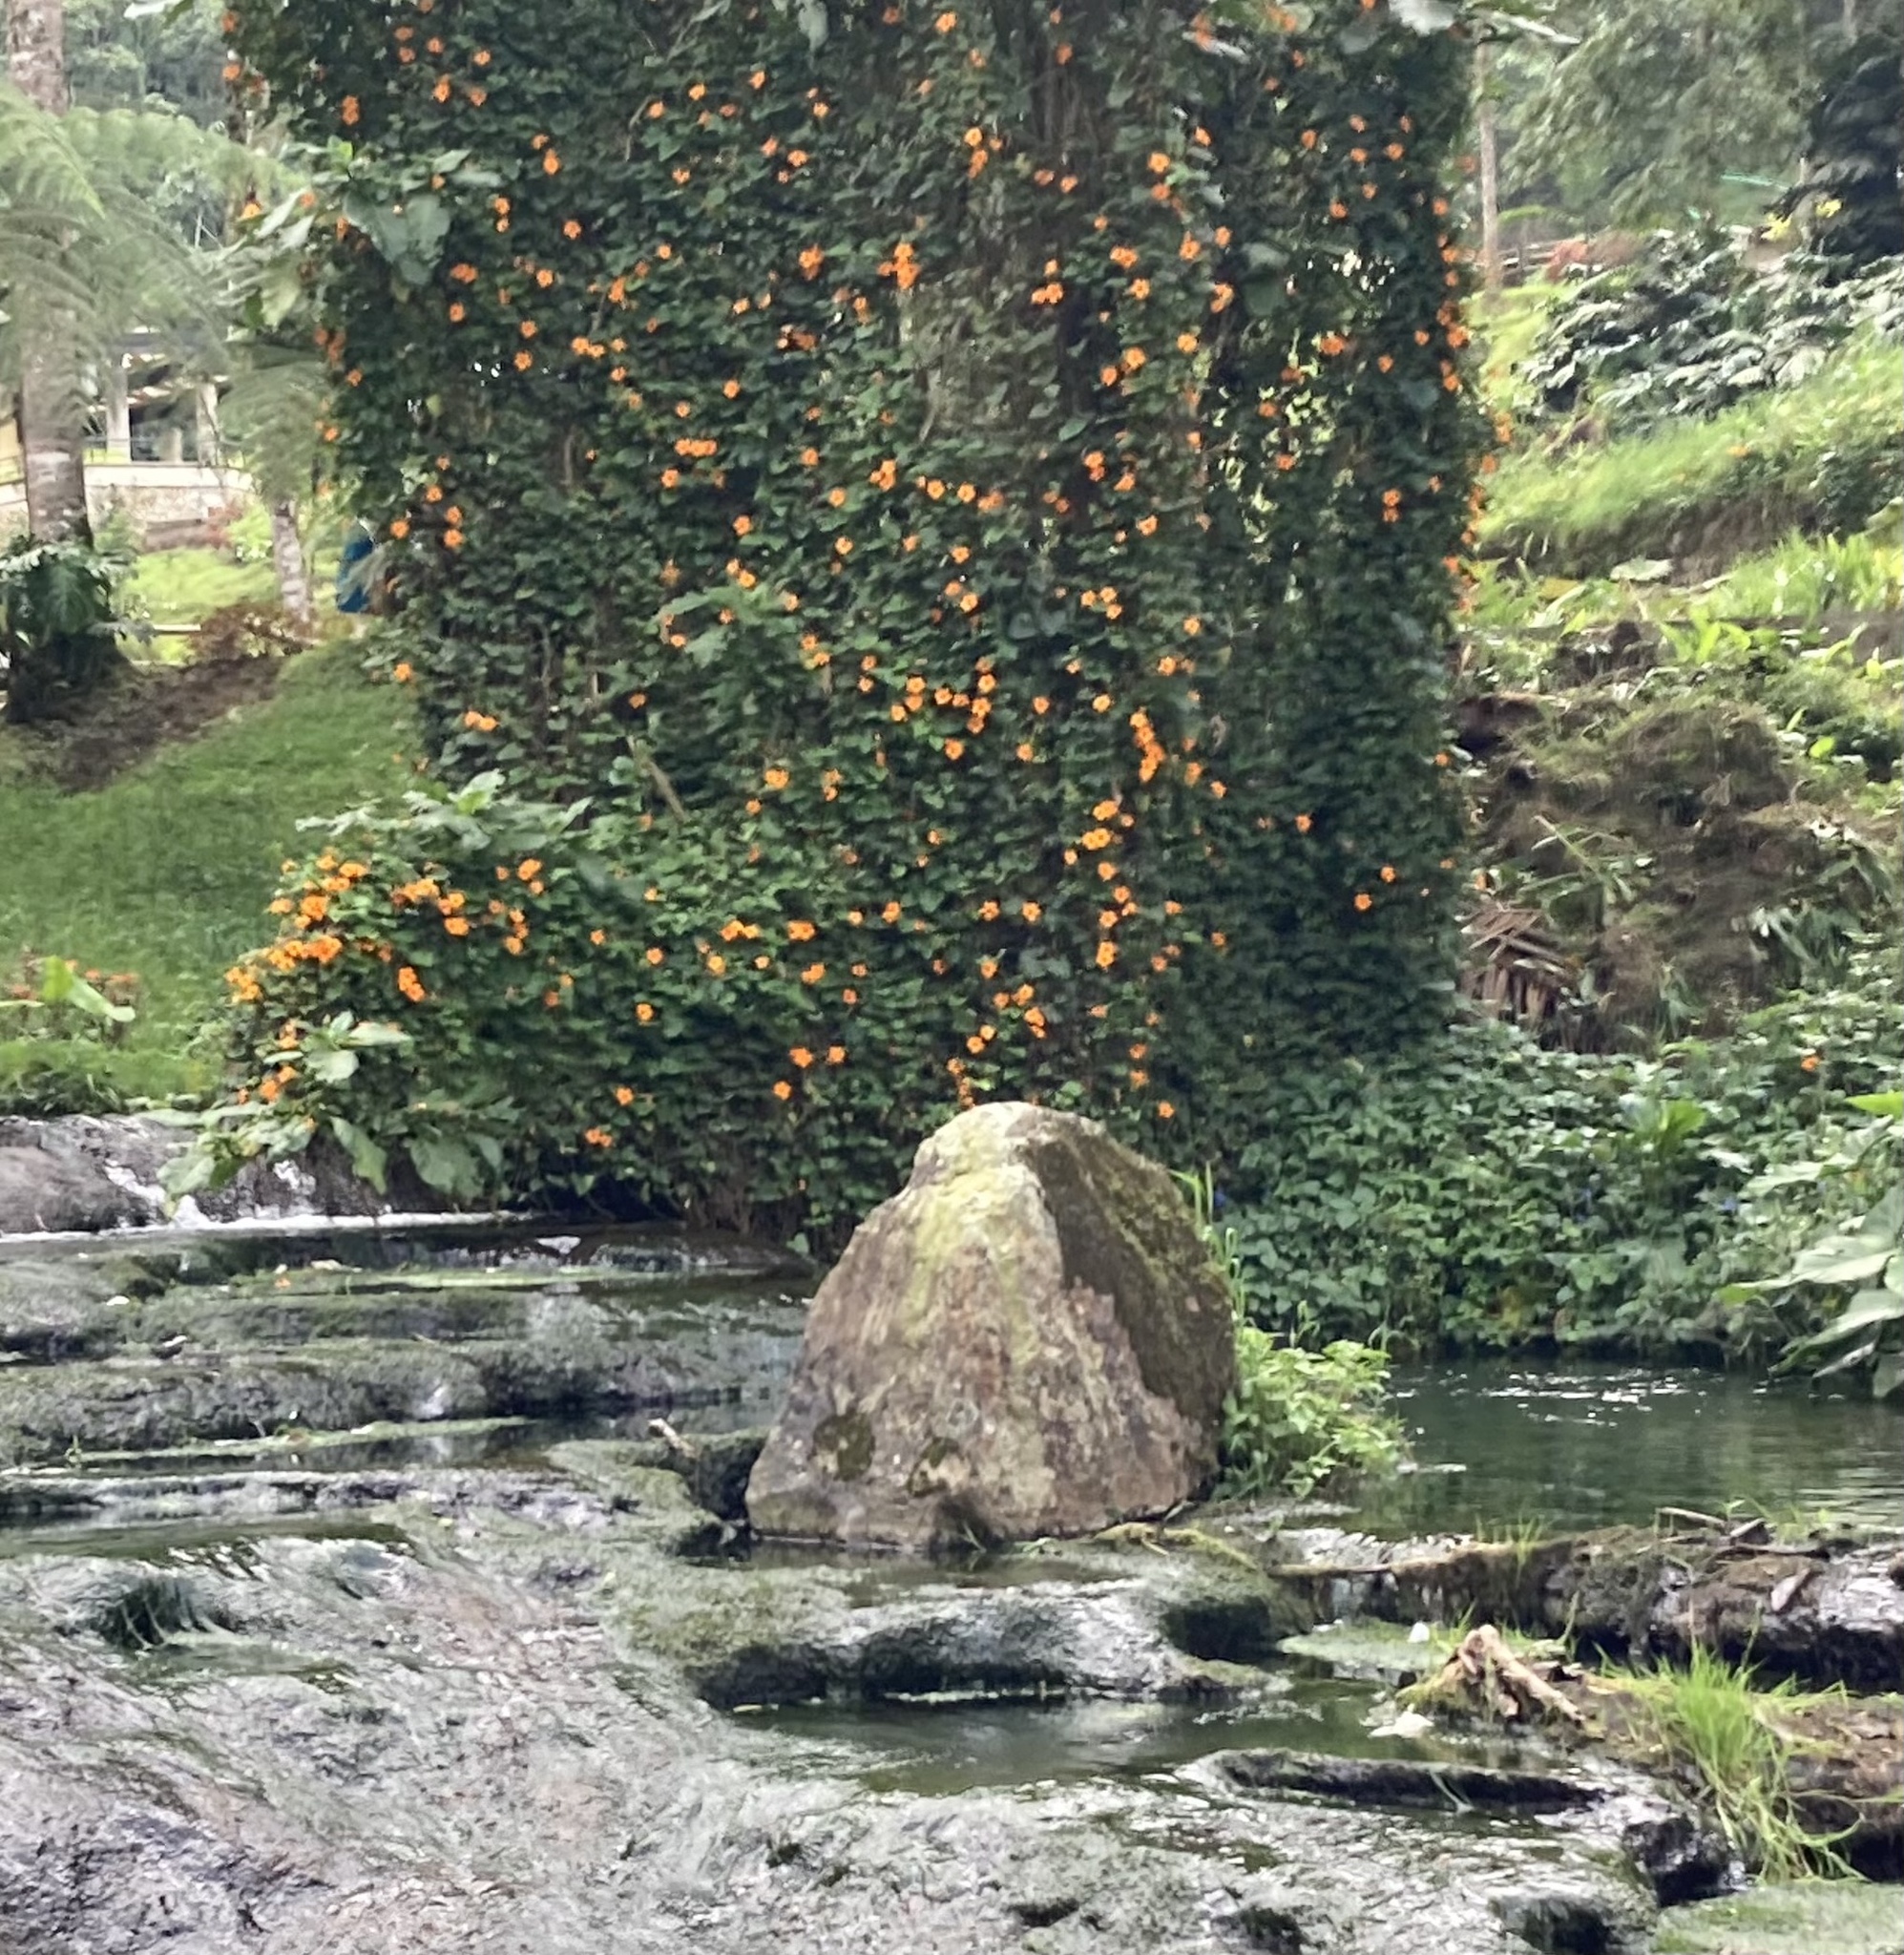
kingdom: Plantae
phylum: Tracheophyta
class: Magnoliopsida
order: Lamiales
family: Acanthaceae
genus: Thunbergia
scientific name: Thunbergia alata
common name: Blackeyed susan vine
